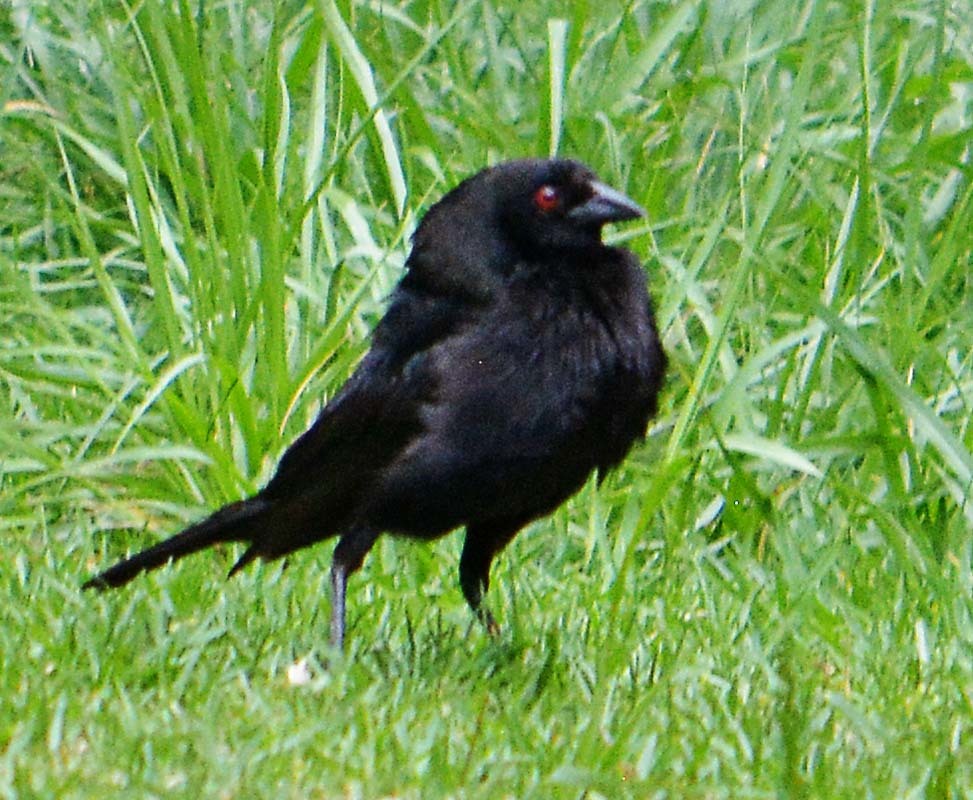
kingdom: Animalia
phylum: Chordata
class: Aves
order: Passeriformes
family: Icteridae
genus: Molothrus
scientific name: Molothrus aeneus
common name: Bronzed cowbird
